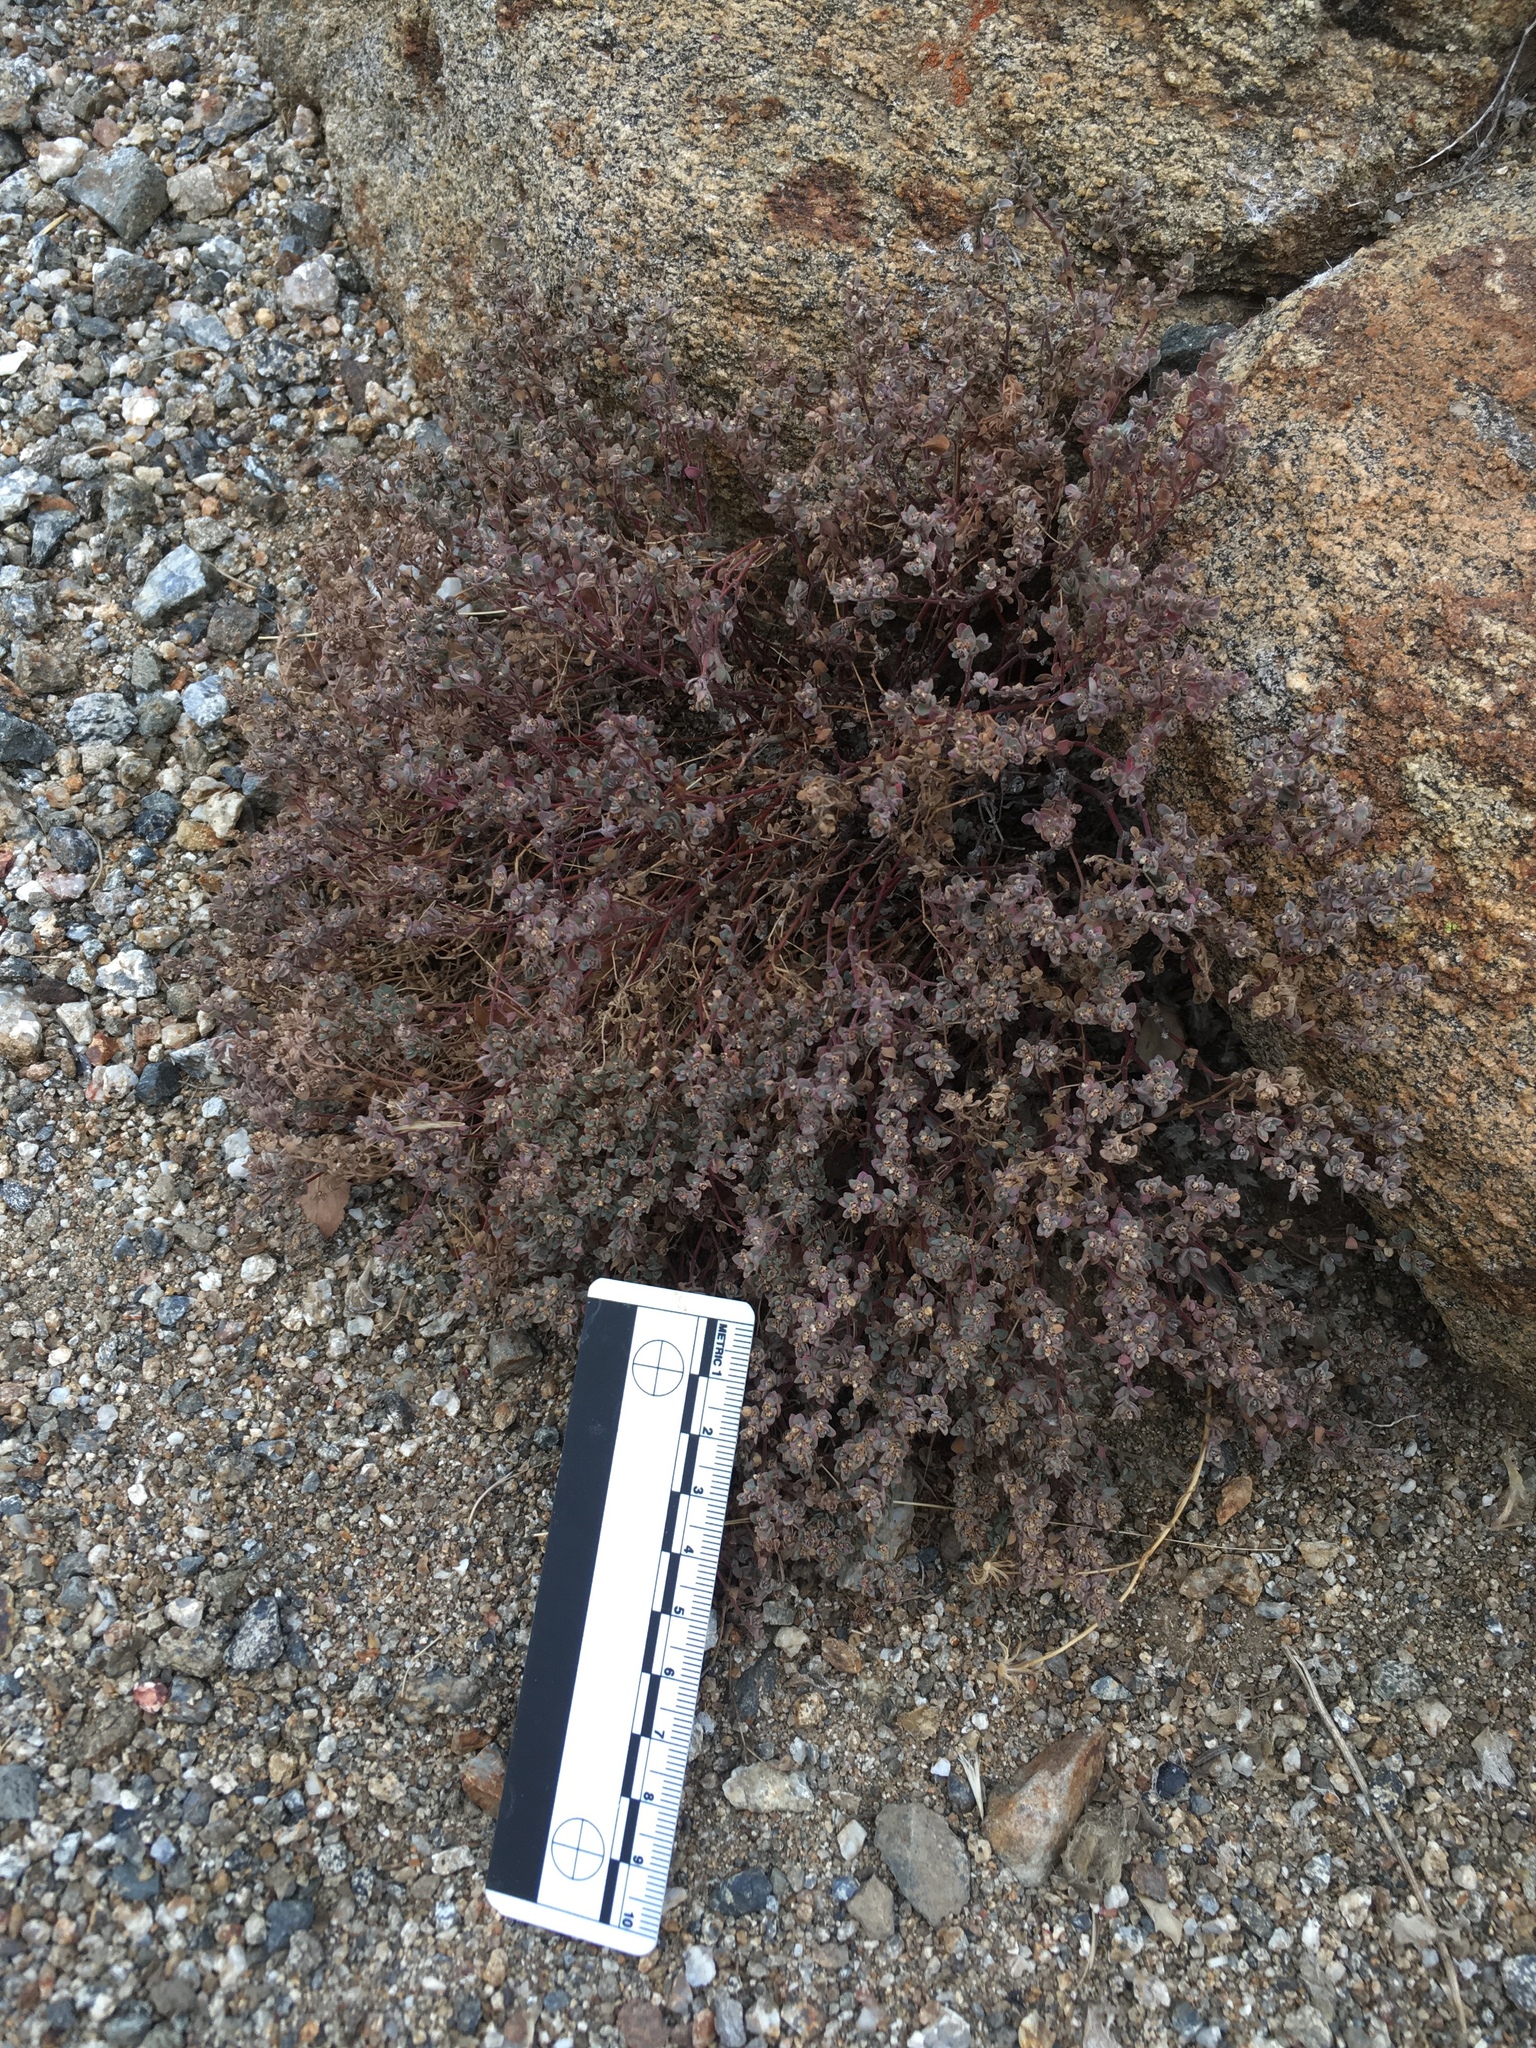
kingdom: Plantae
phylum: Tracheophyta
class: Magnoliopsida
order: Malpighiales
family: Euphorbiaceae
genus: Euphorbia
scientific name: Euphorbia melanadenia
